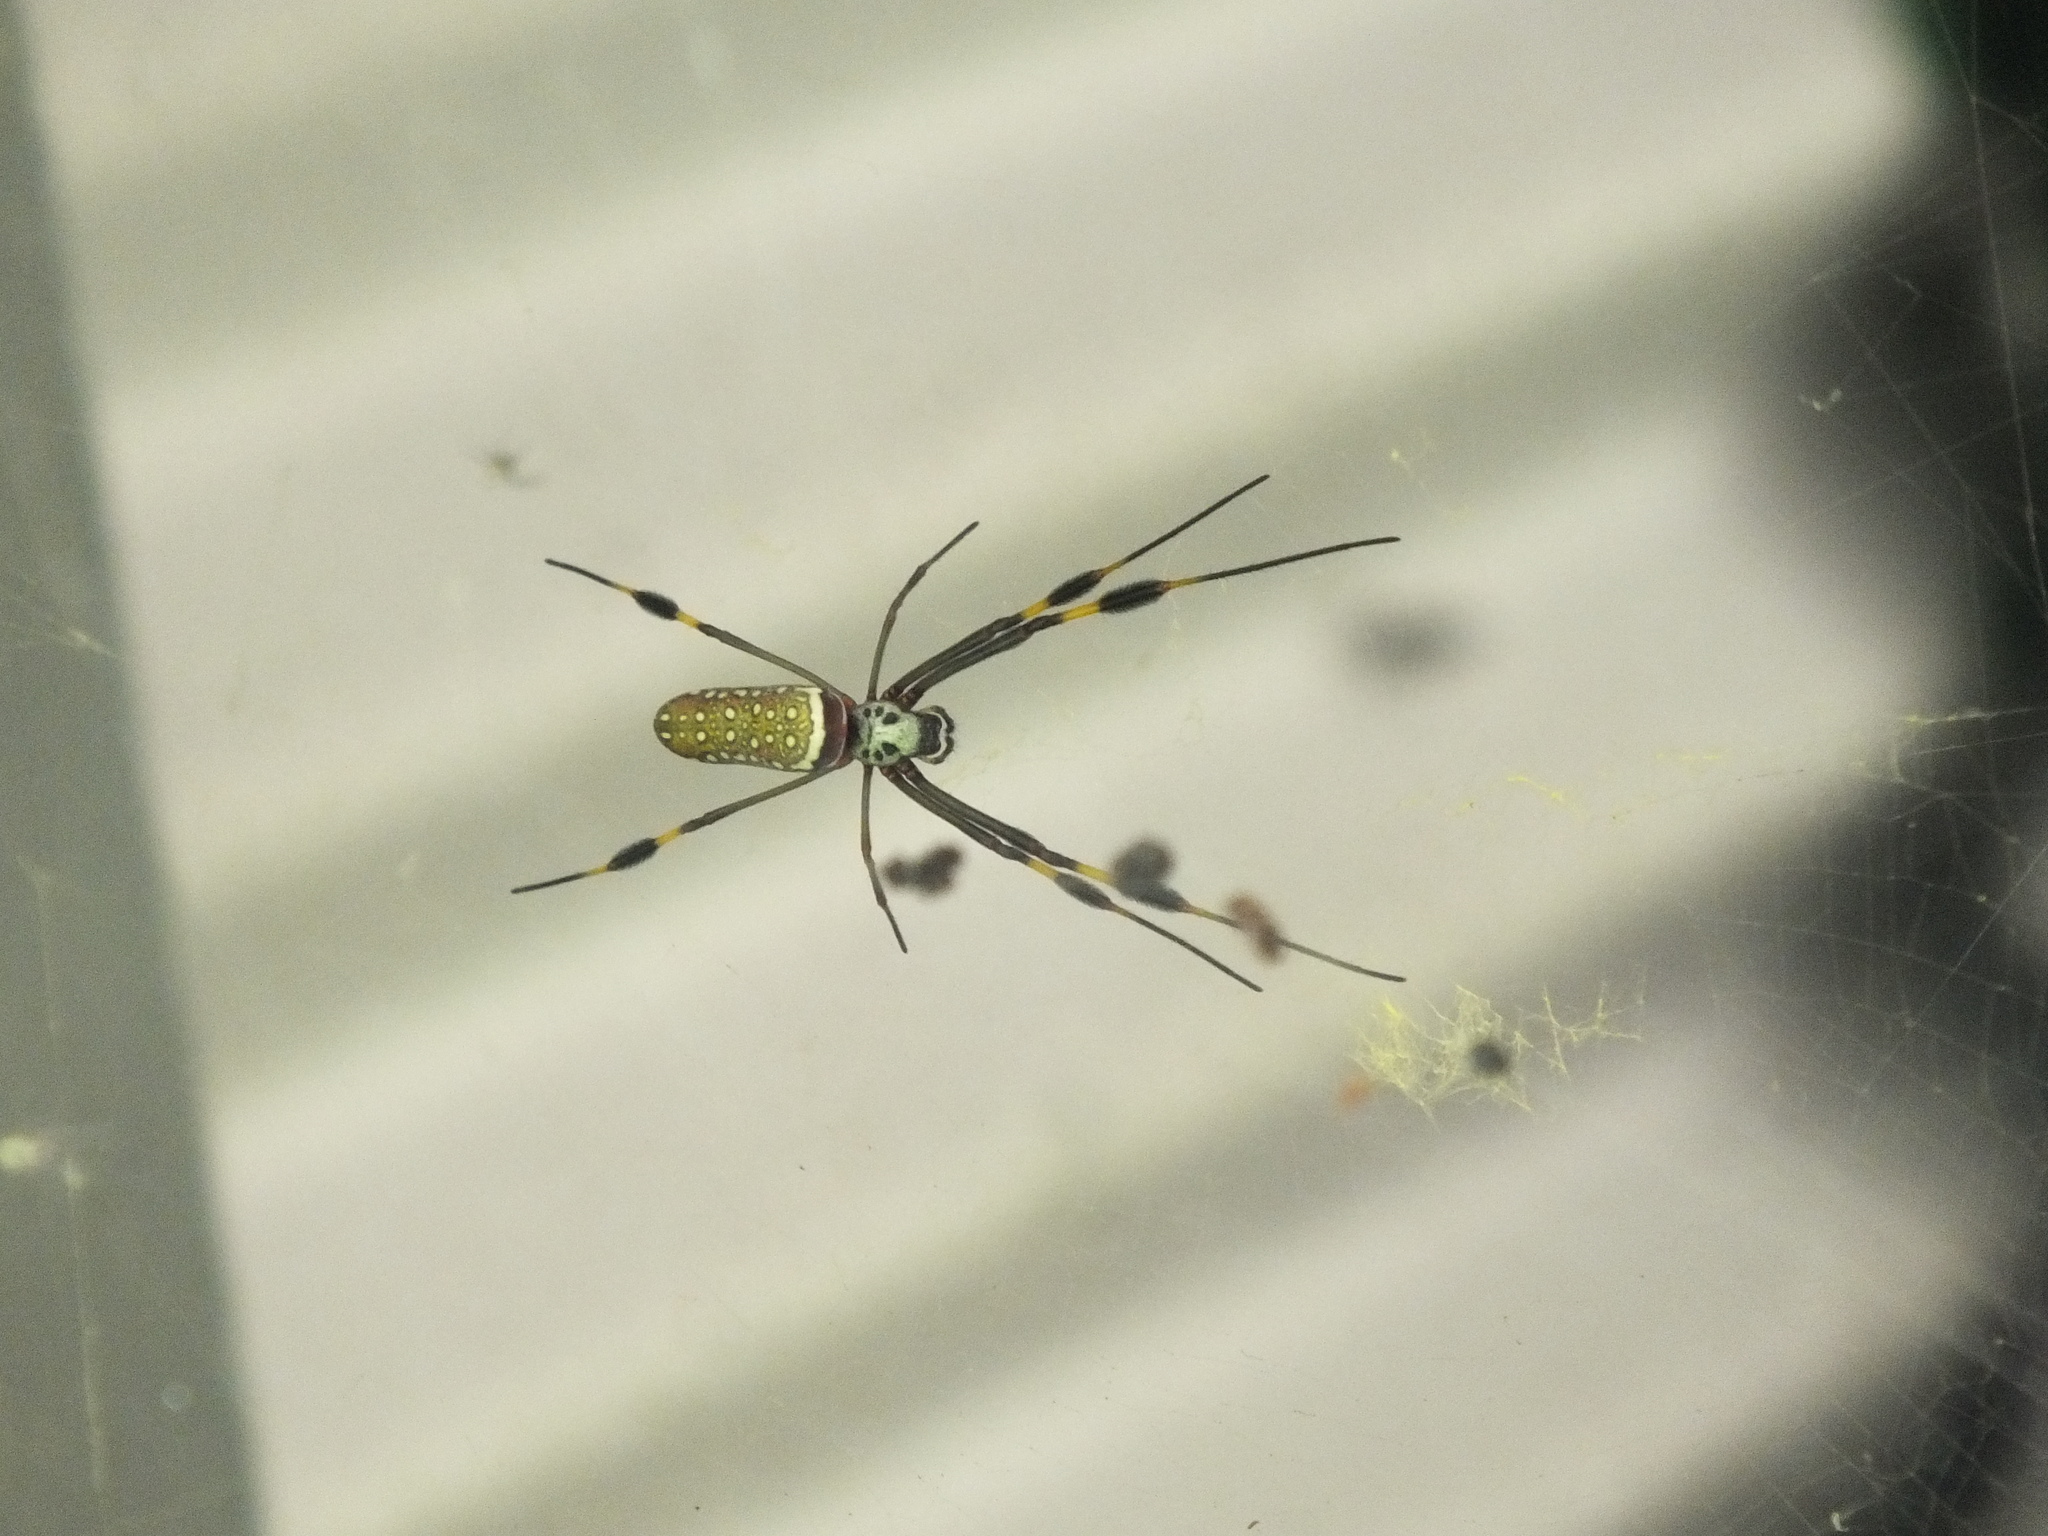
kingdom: Animalia
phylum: Arthropoda
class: Arachnida
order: Araneae
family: Araneidae
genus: Trichonephila
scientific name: Trichonephila clavipes
